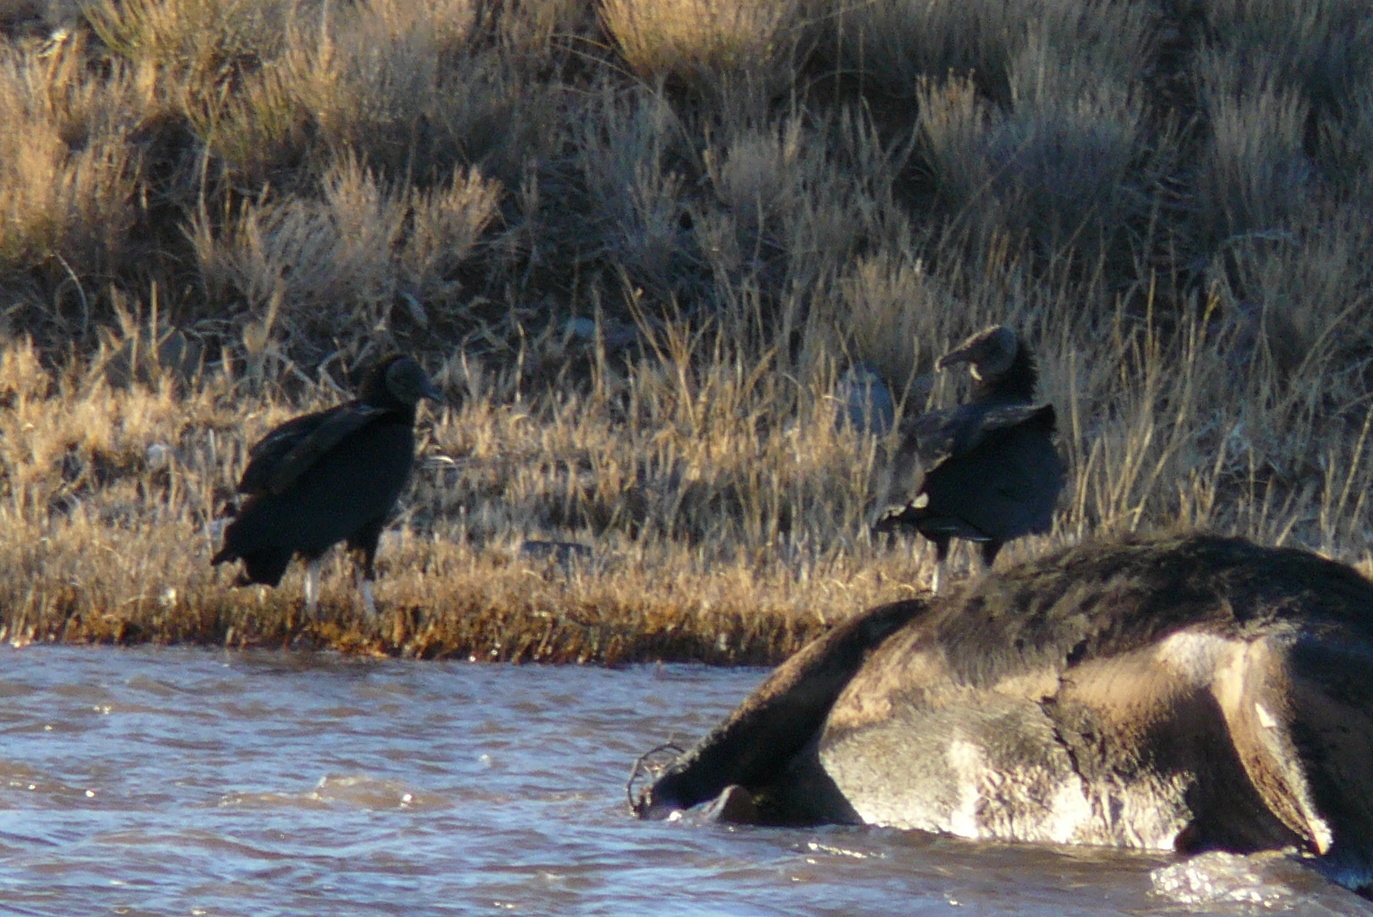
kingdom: Animalia
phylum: Chordata
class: Aves
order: Accipitriformes
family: Cathartidae
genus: Coragyps
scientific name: Coragyps atratus
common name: Black vulture
